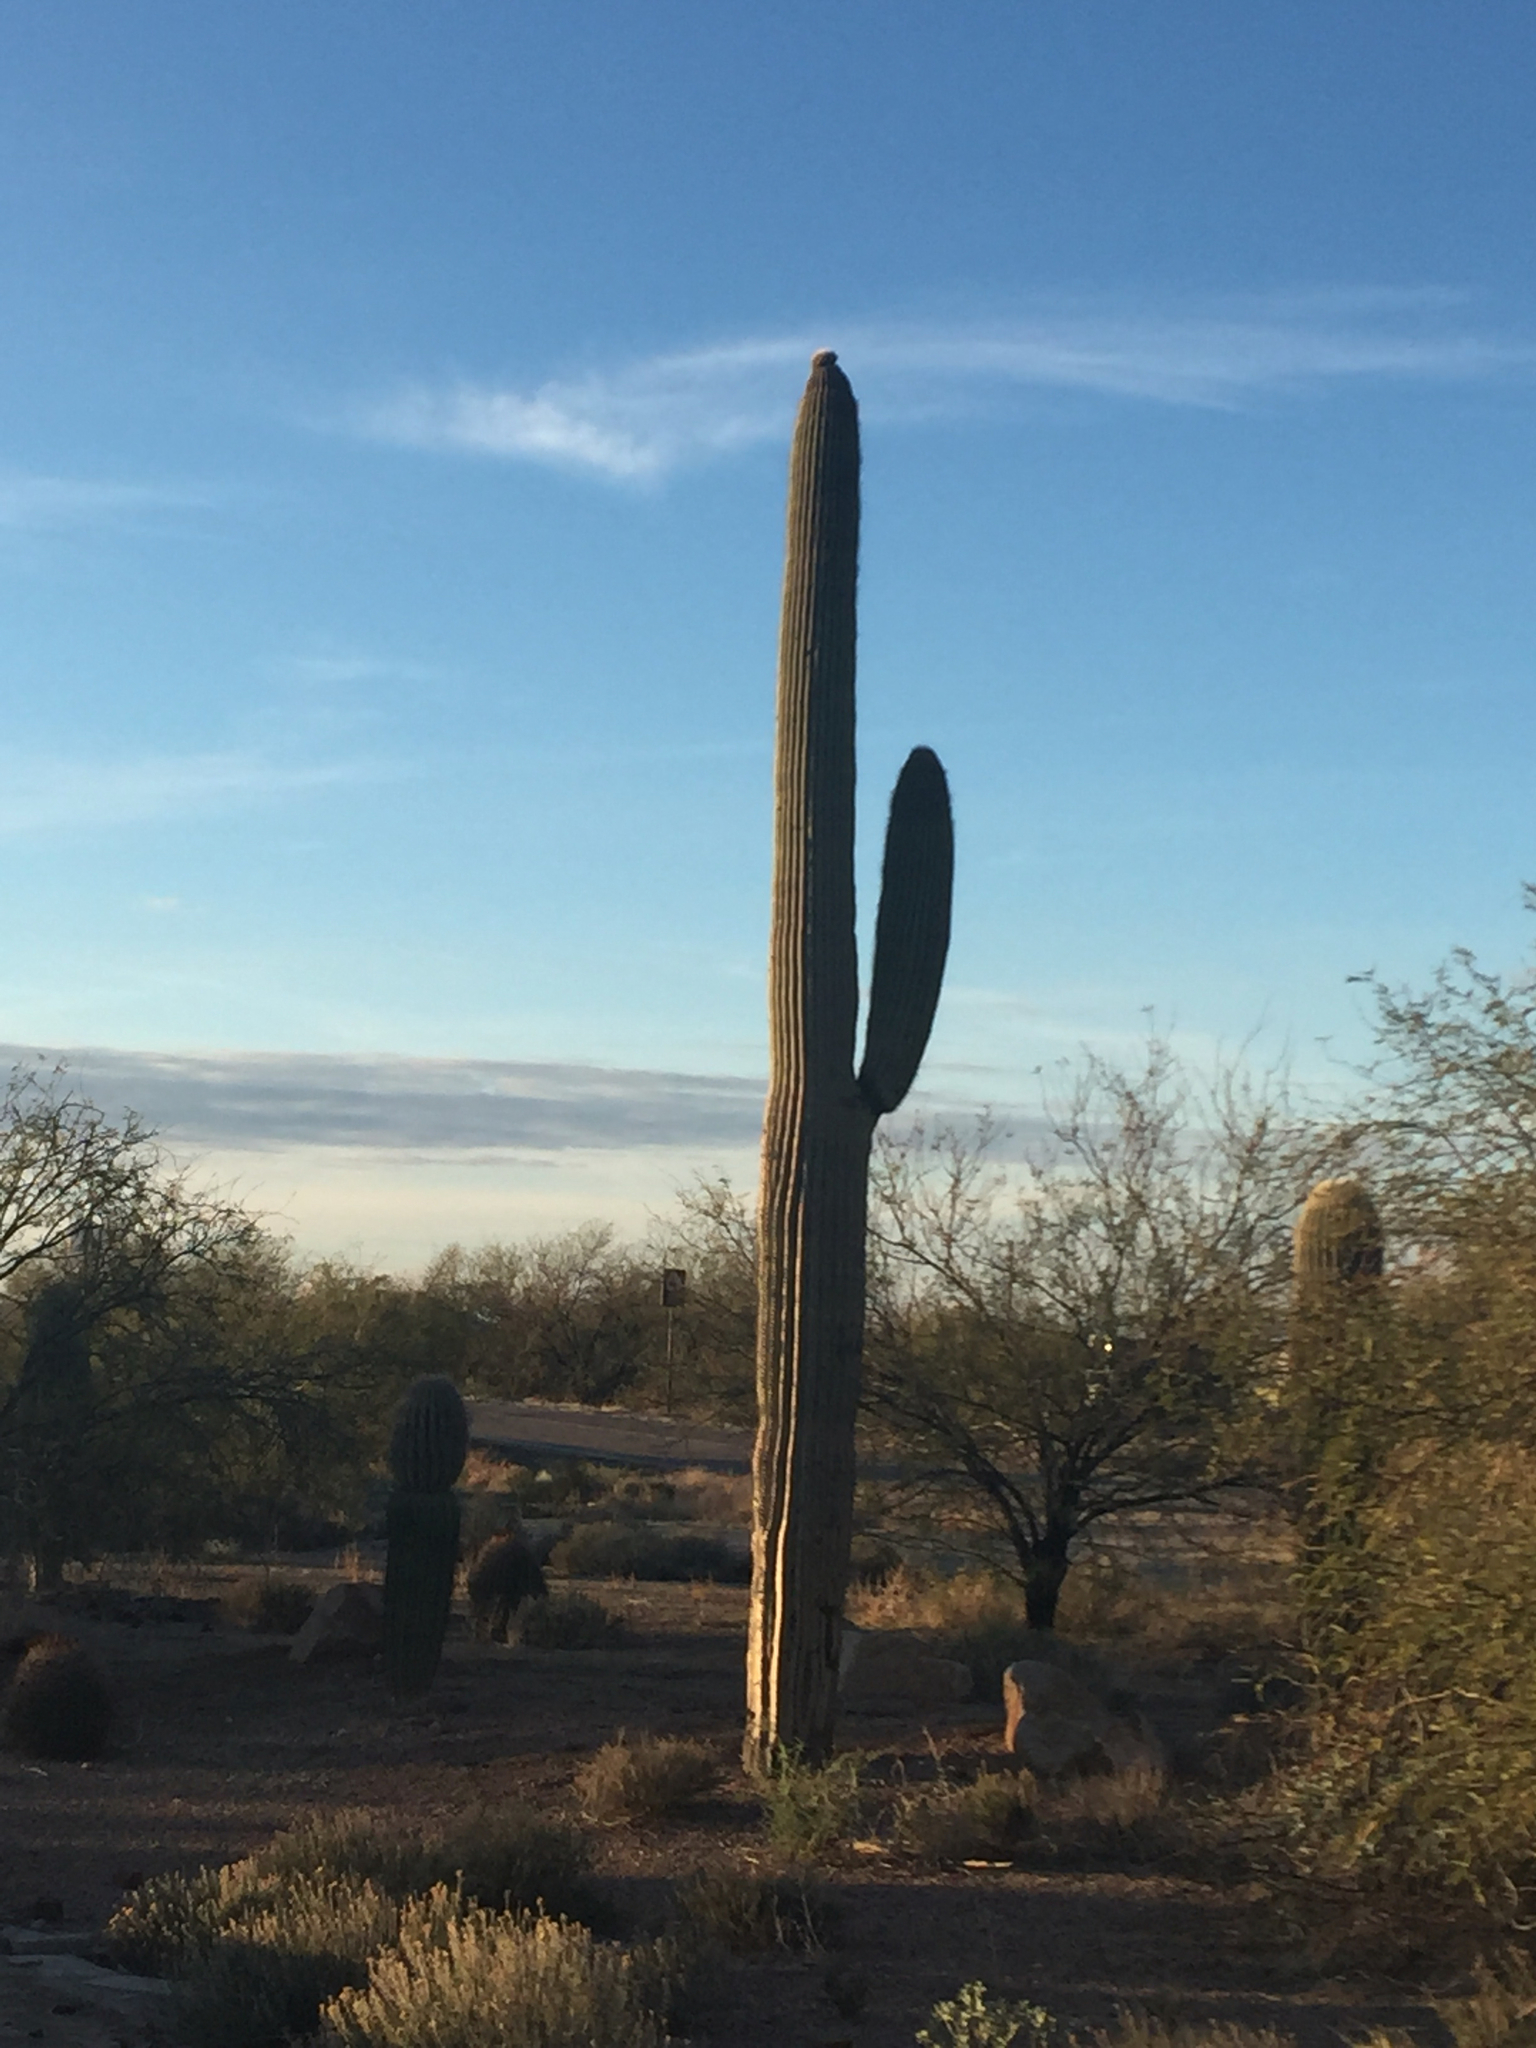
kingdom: Plantae
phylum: Tracheophyta
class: Magnoliopsida
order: Caryophyllales
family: Cactaceae
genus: Carnegiea
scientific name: Carnegiea gigantea
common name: Saguaro
